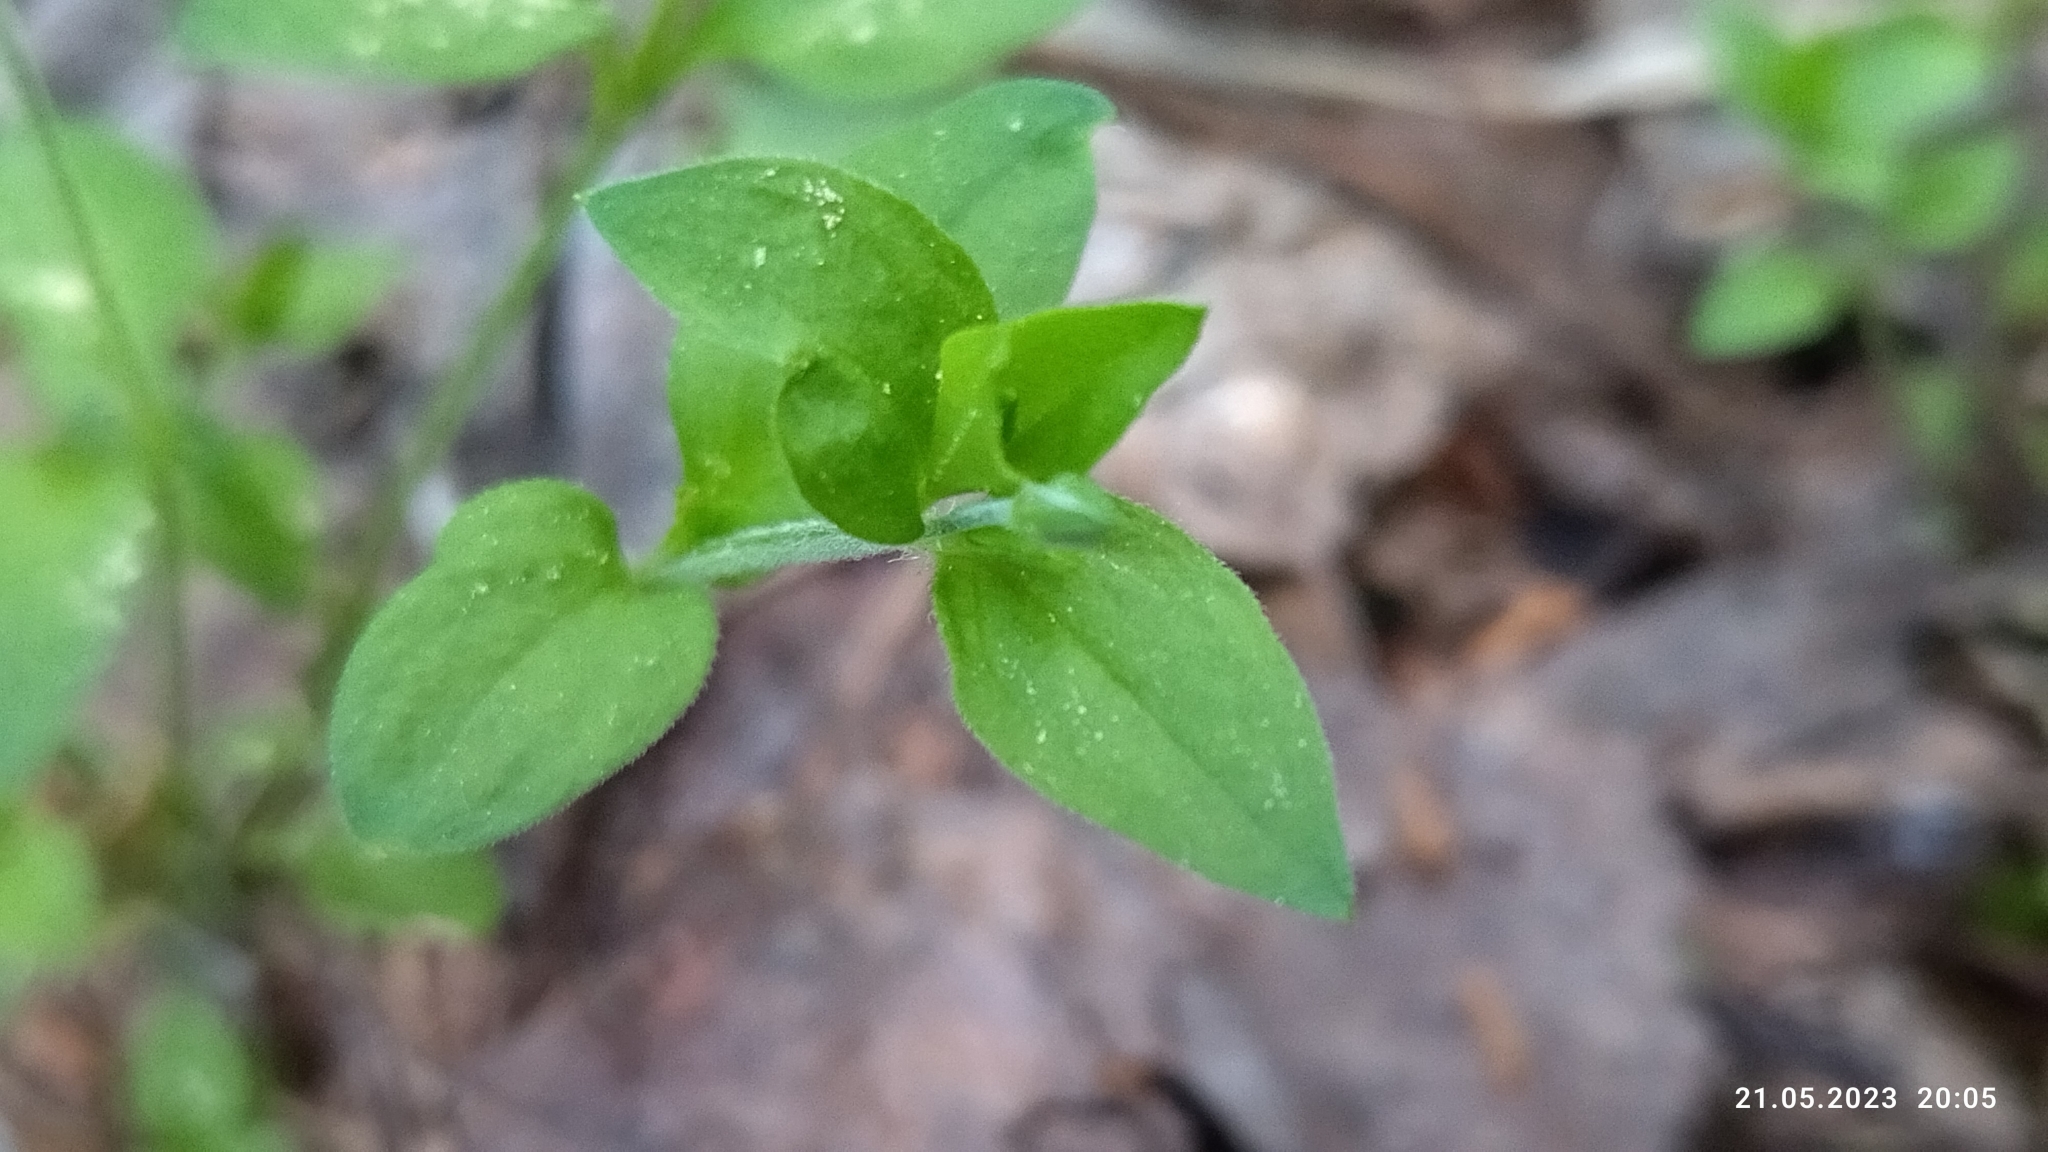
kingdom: Plantae
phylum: Tracheophyta
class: Magnoliopsida
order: Caryophyllales
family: Caryophyllaceae
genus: Moehringia
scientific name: Moehringia trinervia
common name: Three-nerved sandwort
